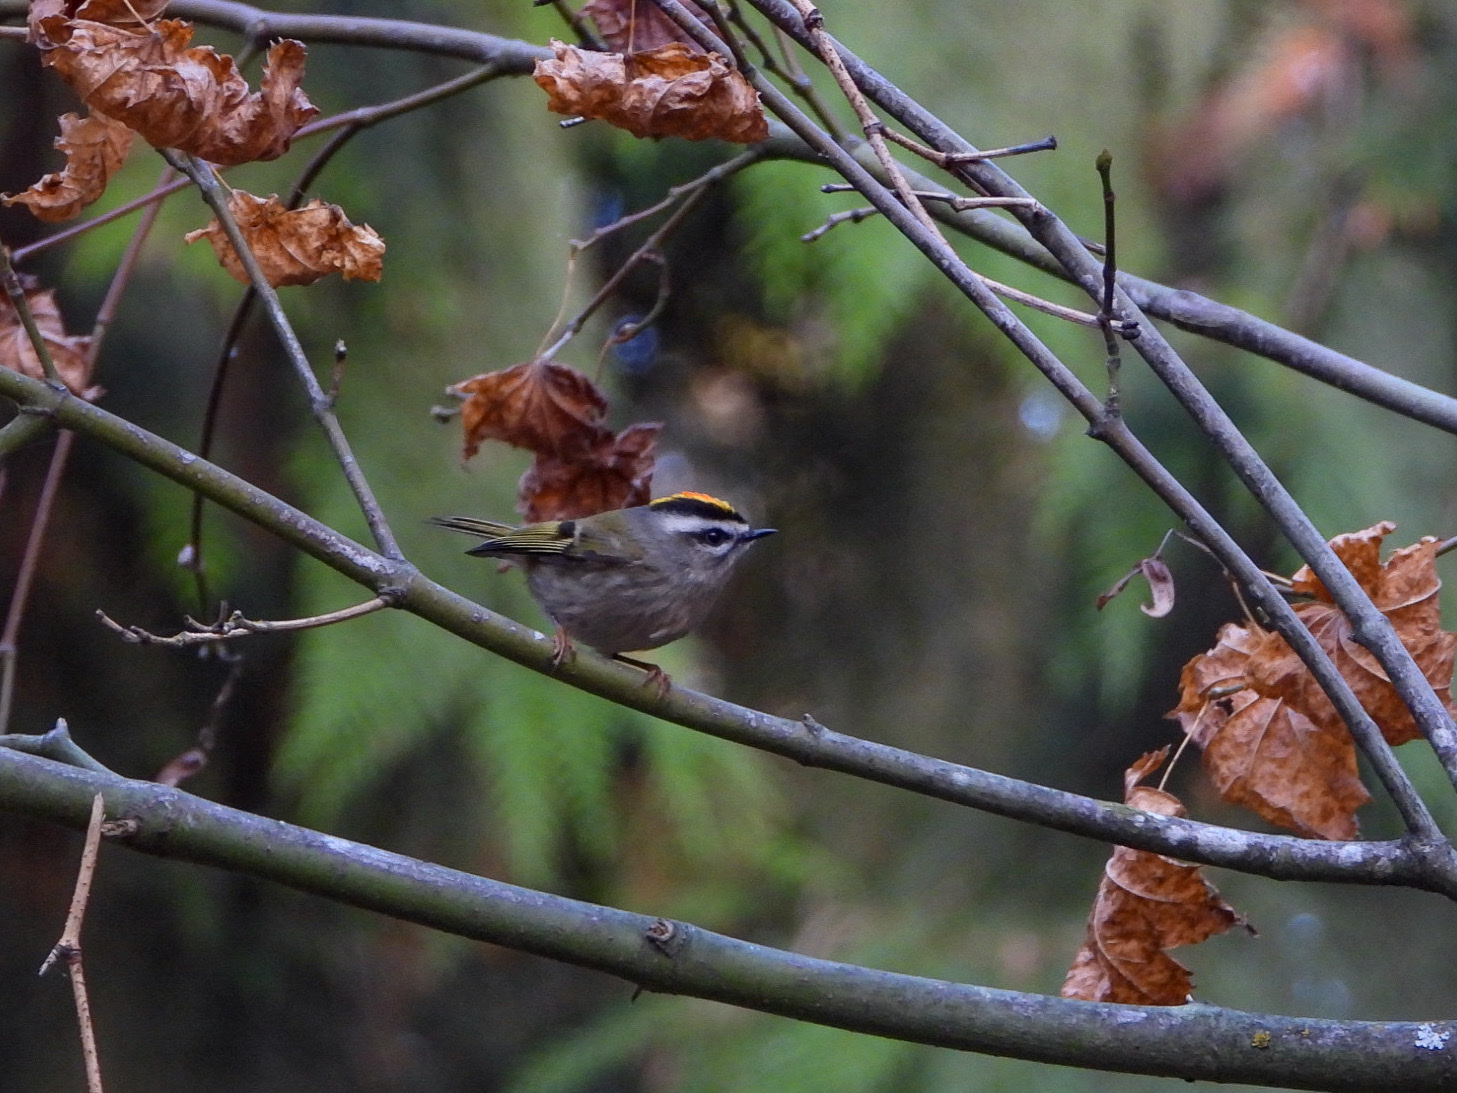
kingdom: Animalia
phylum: Chordata
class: Aves
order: Passeriformes
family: Regulidae
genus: Regulus
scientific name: Regulus satrapa
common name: Golden-crowned kinglet
